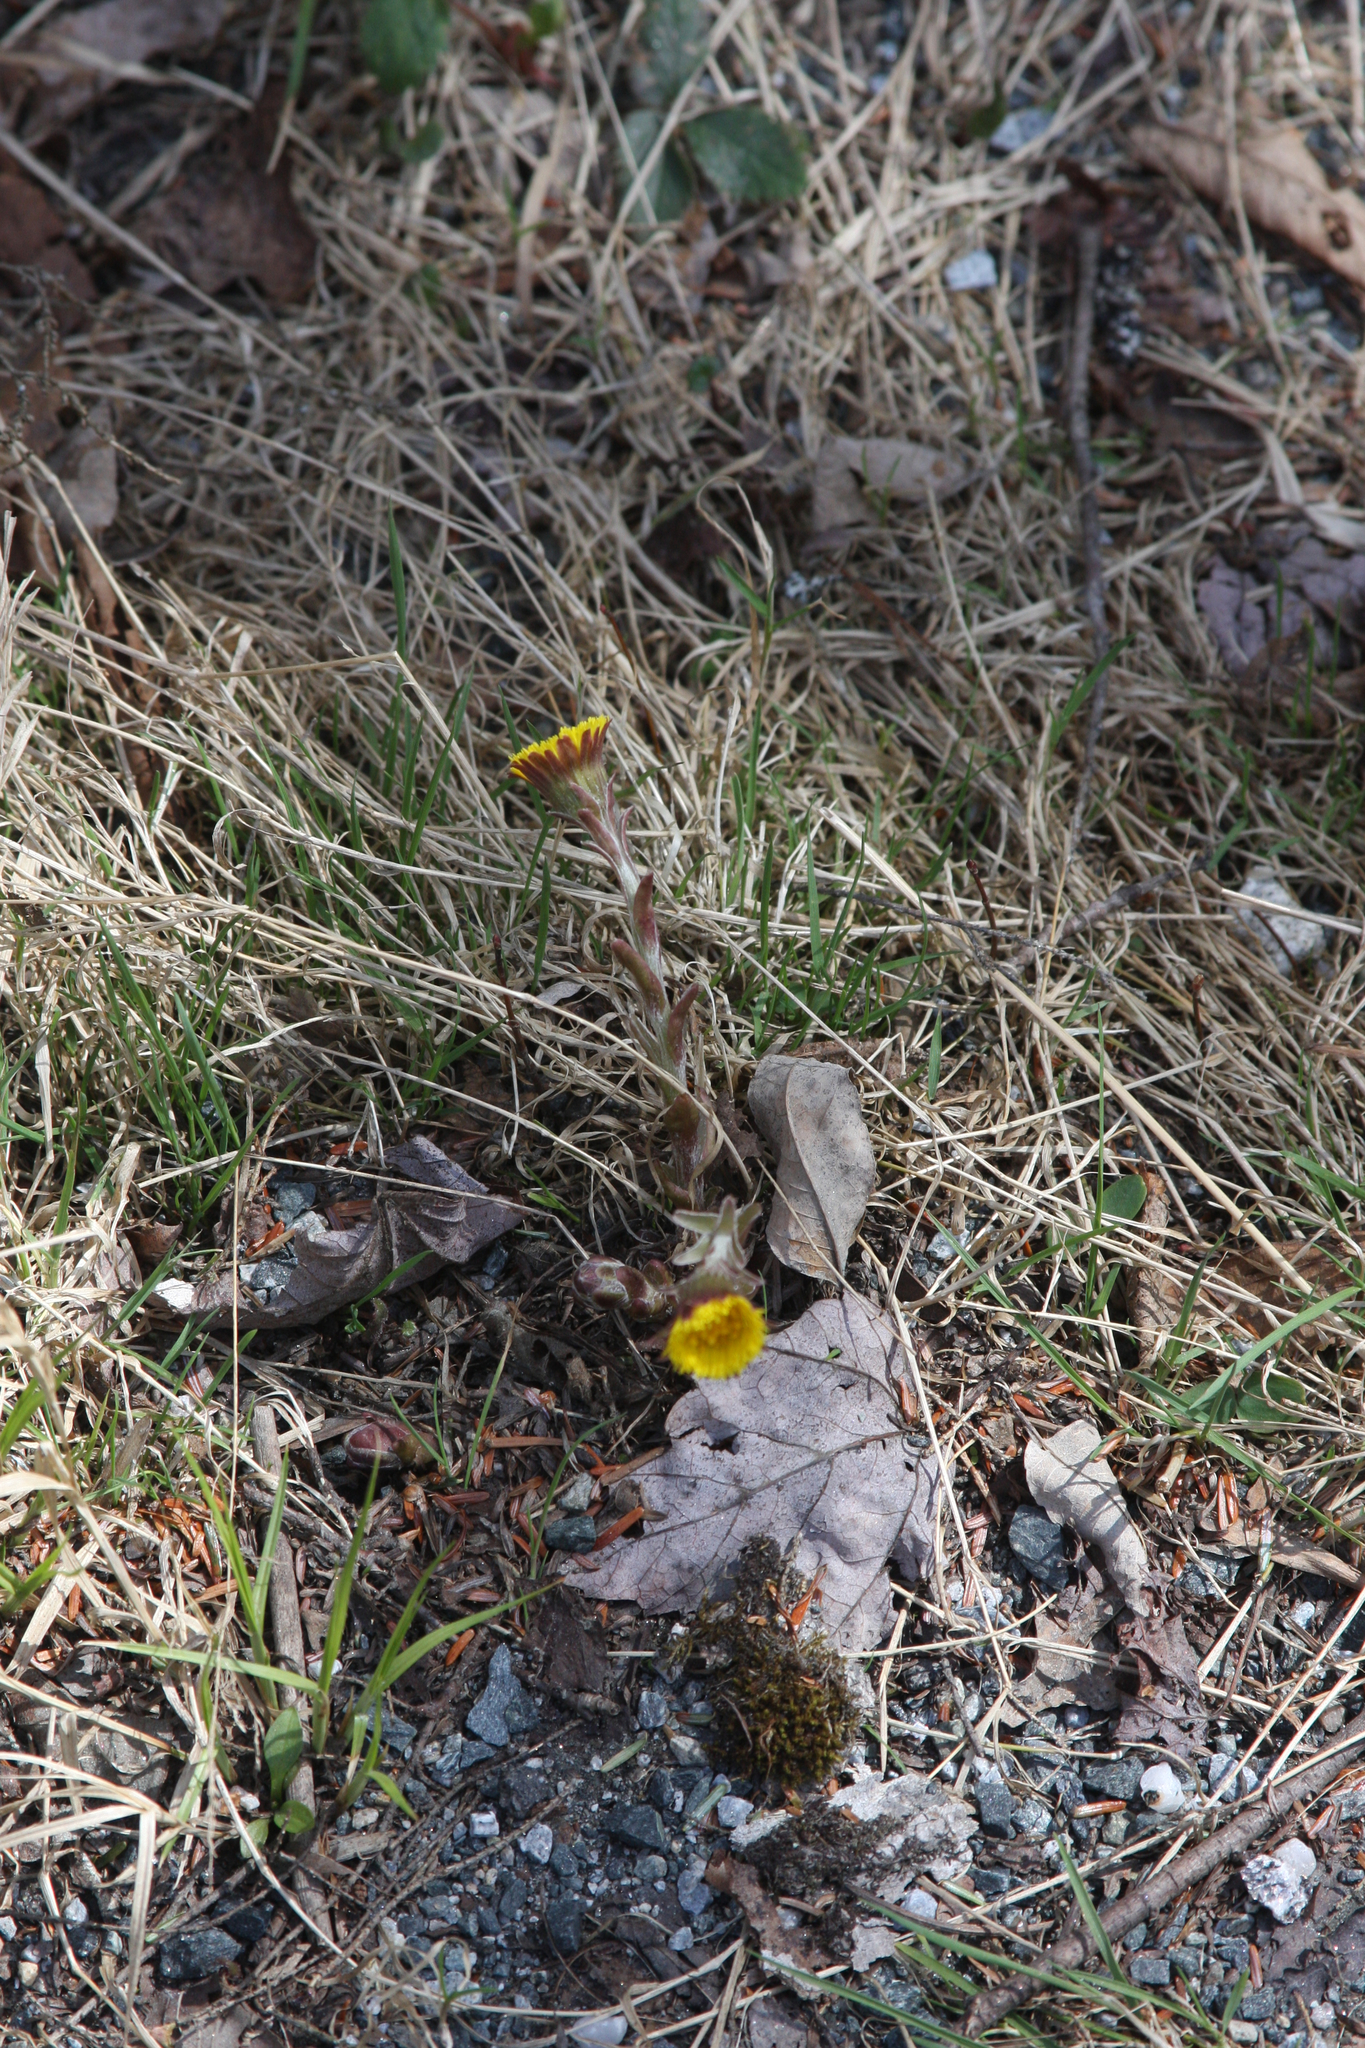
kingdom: Plantae
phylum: Tracheophyta
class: Magnoliopsida
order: Asterales
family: Asteraceae
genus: Tussilago
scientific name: Tussilago farfara
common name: Coltsfoot
